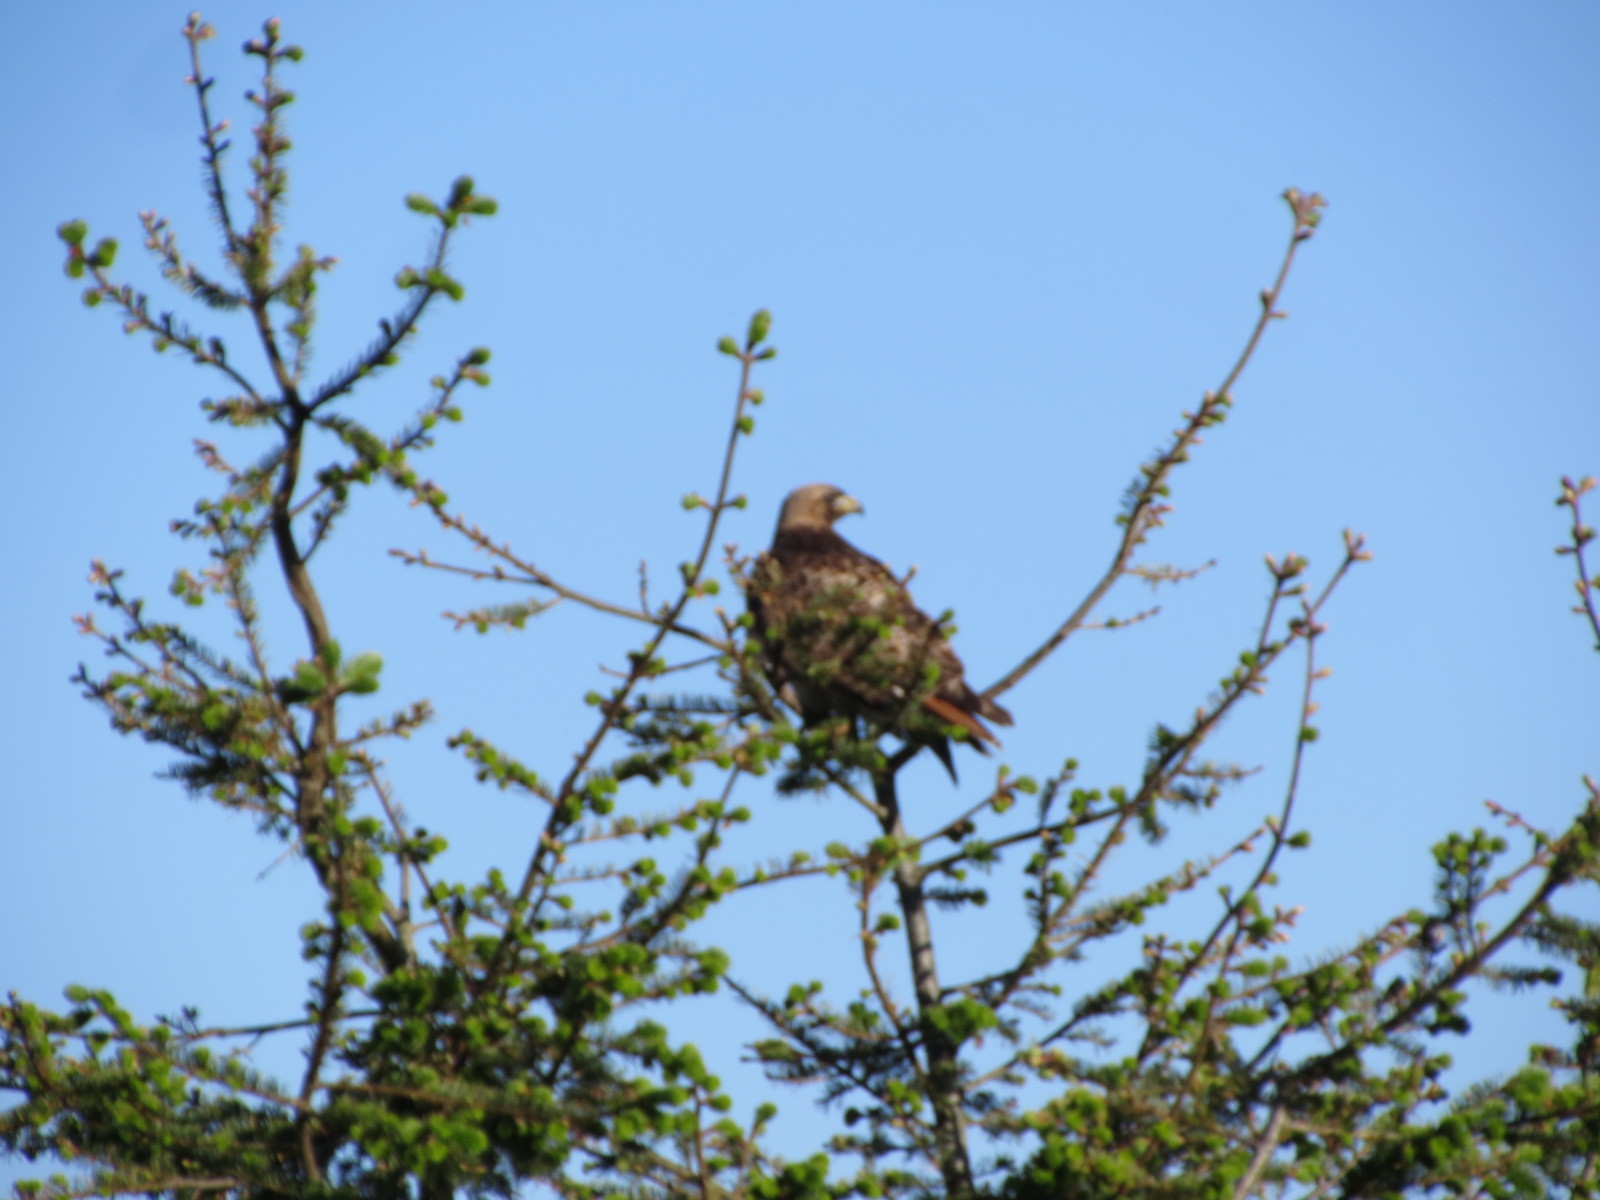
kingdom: Animalia
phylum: Chordata
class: Aves
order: Accipitriformes
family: Accipitridae
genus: Buteo
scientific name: Buteo jamaicensis
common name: Red-tailed hawk
